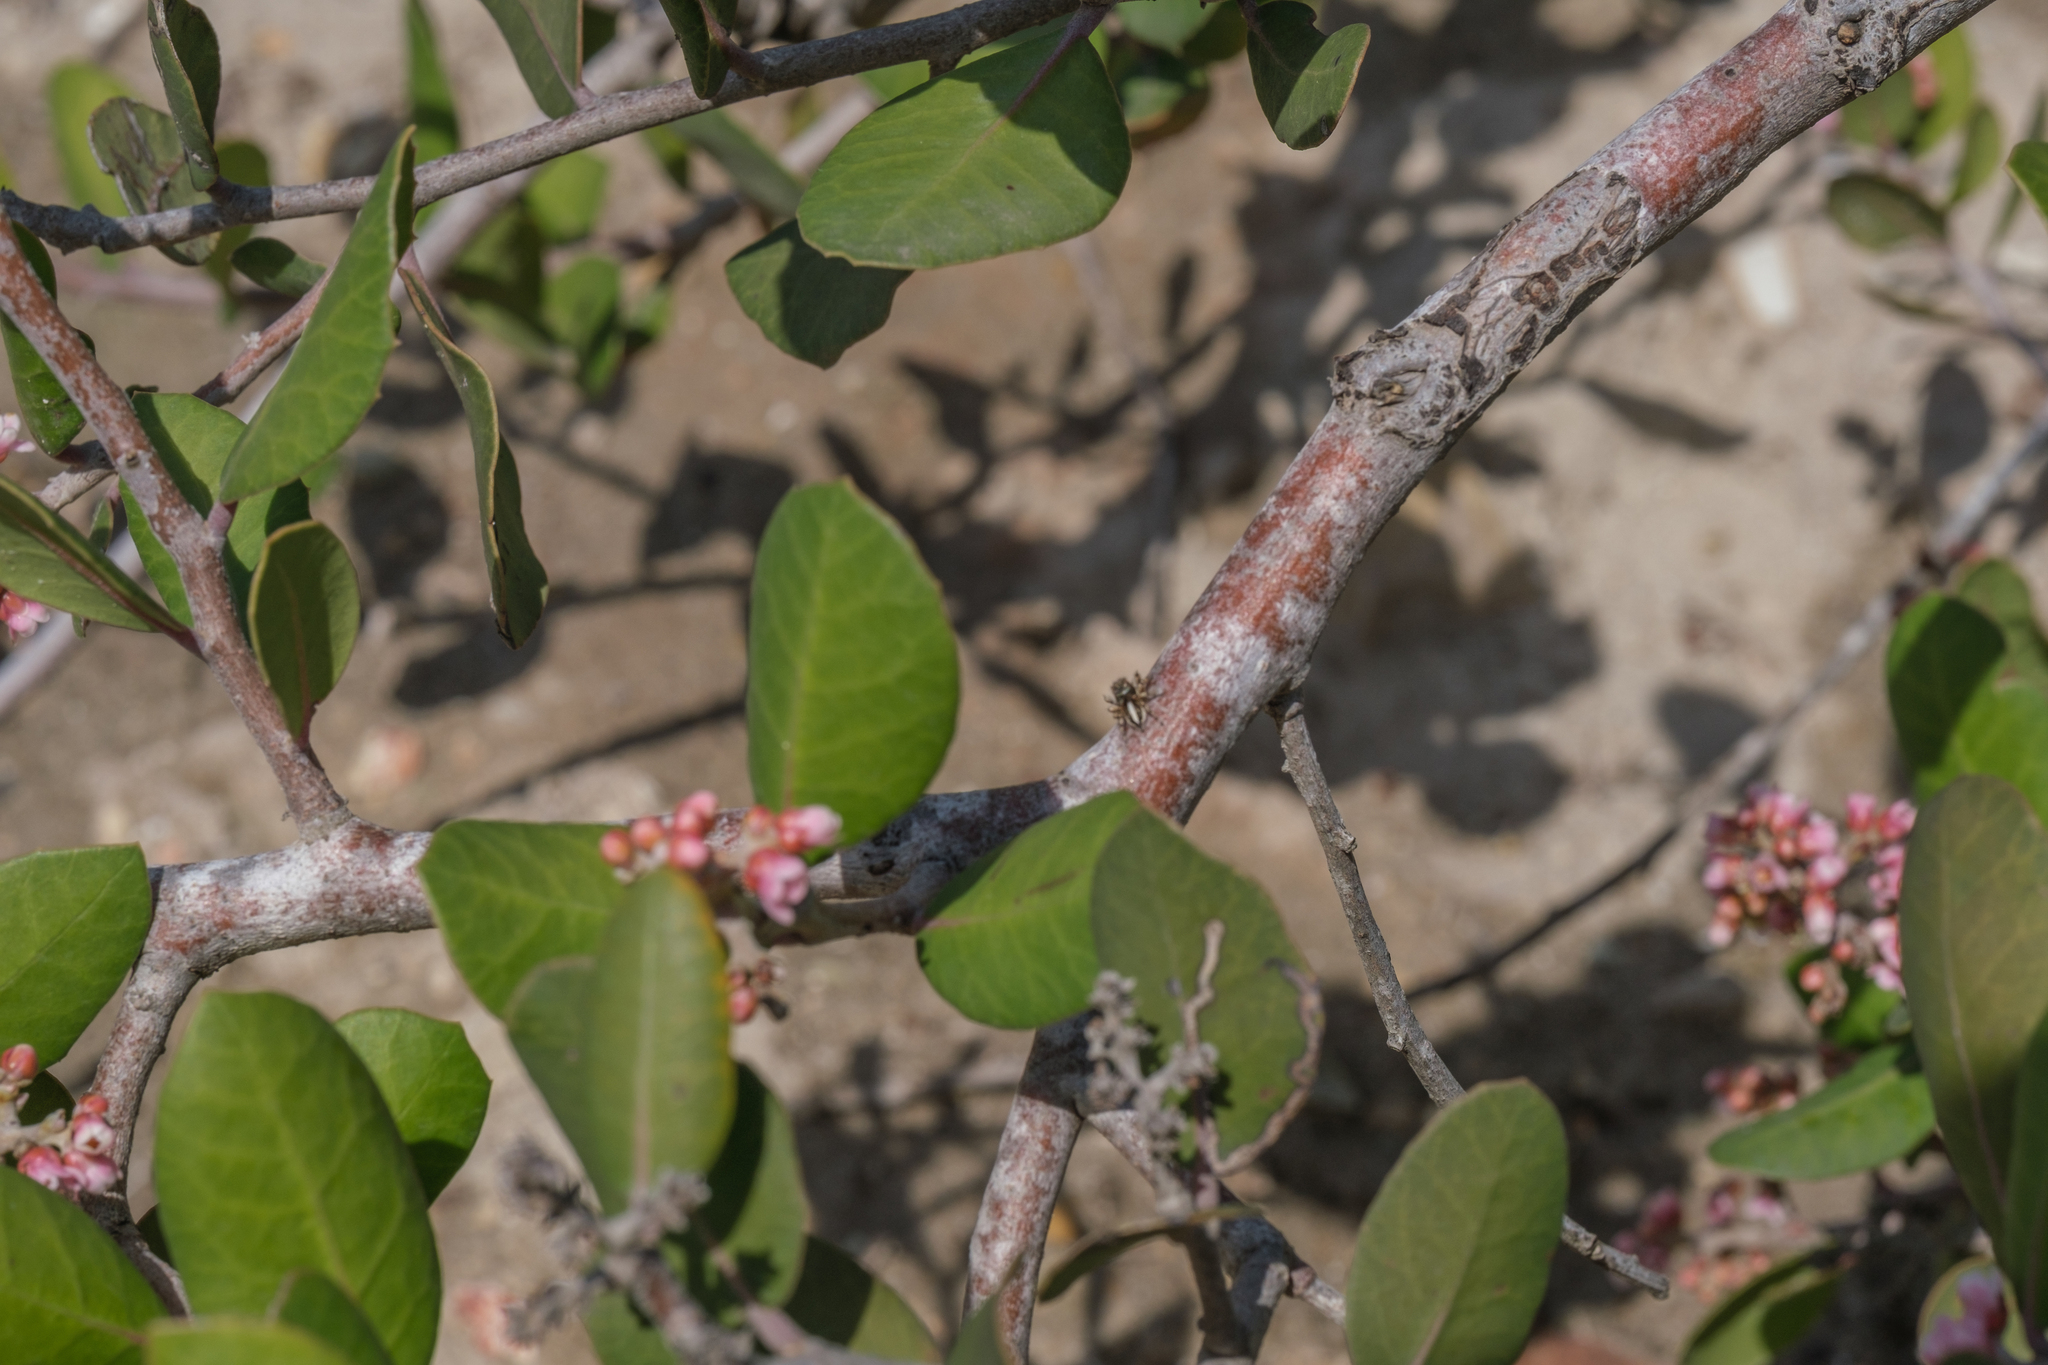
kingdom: Animalia
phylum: Arthropoda
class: Arachnida
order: Araneae
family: Salticidae
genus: Habronattus
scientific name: Habronattus elegans
